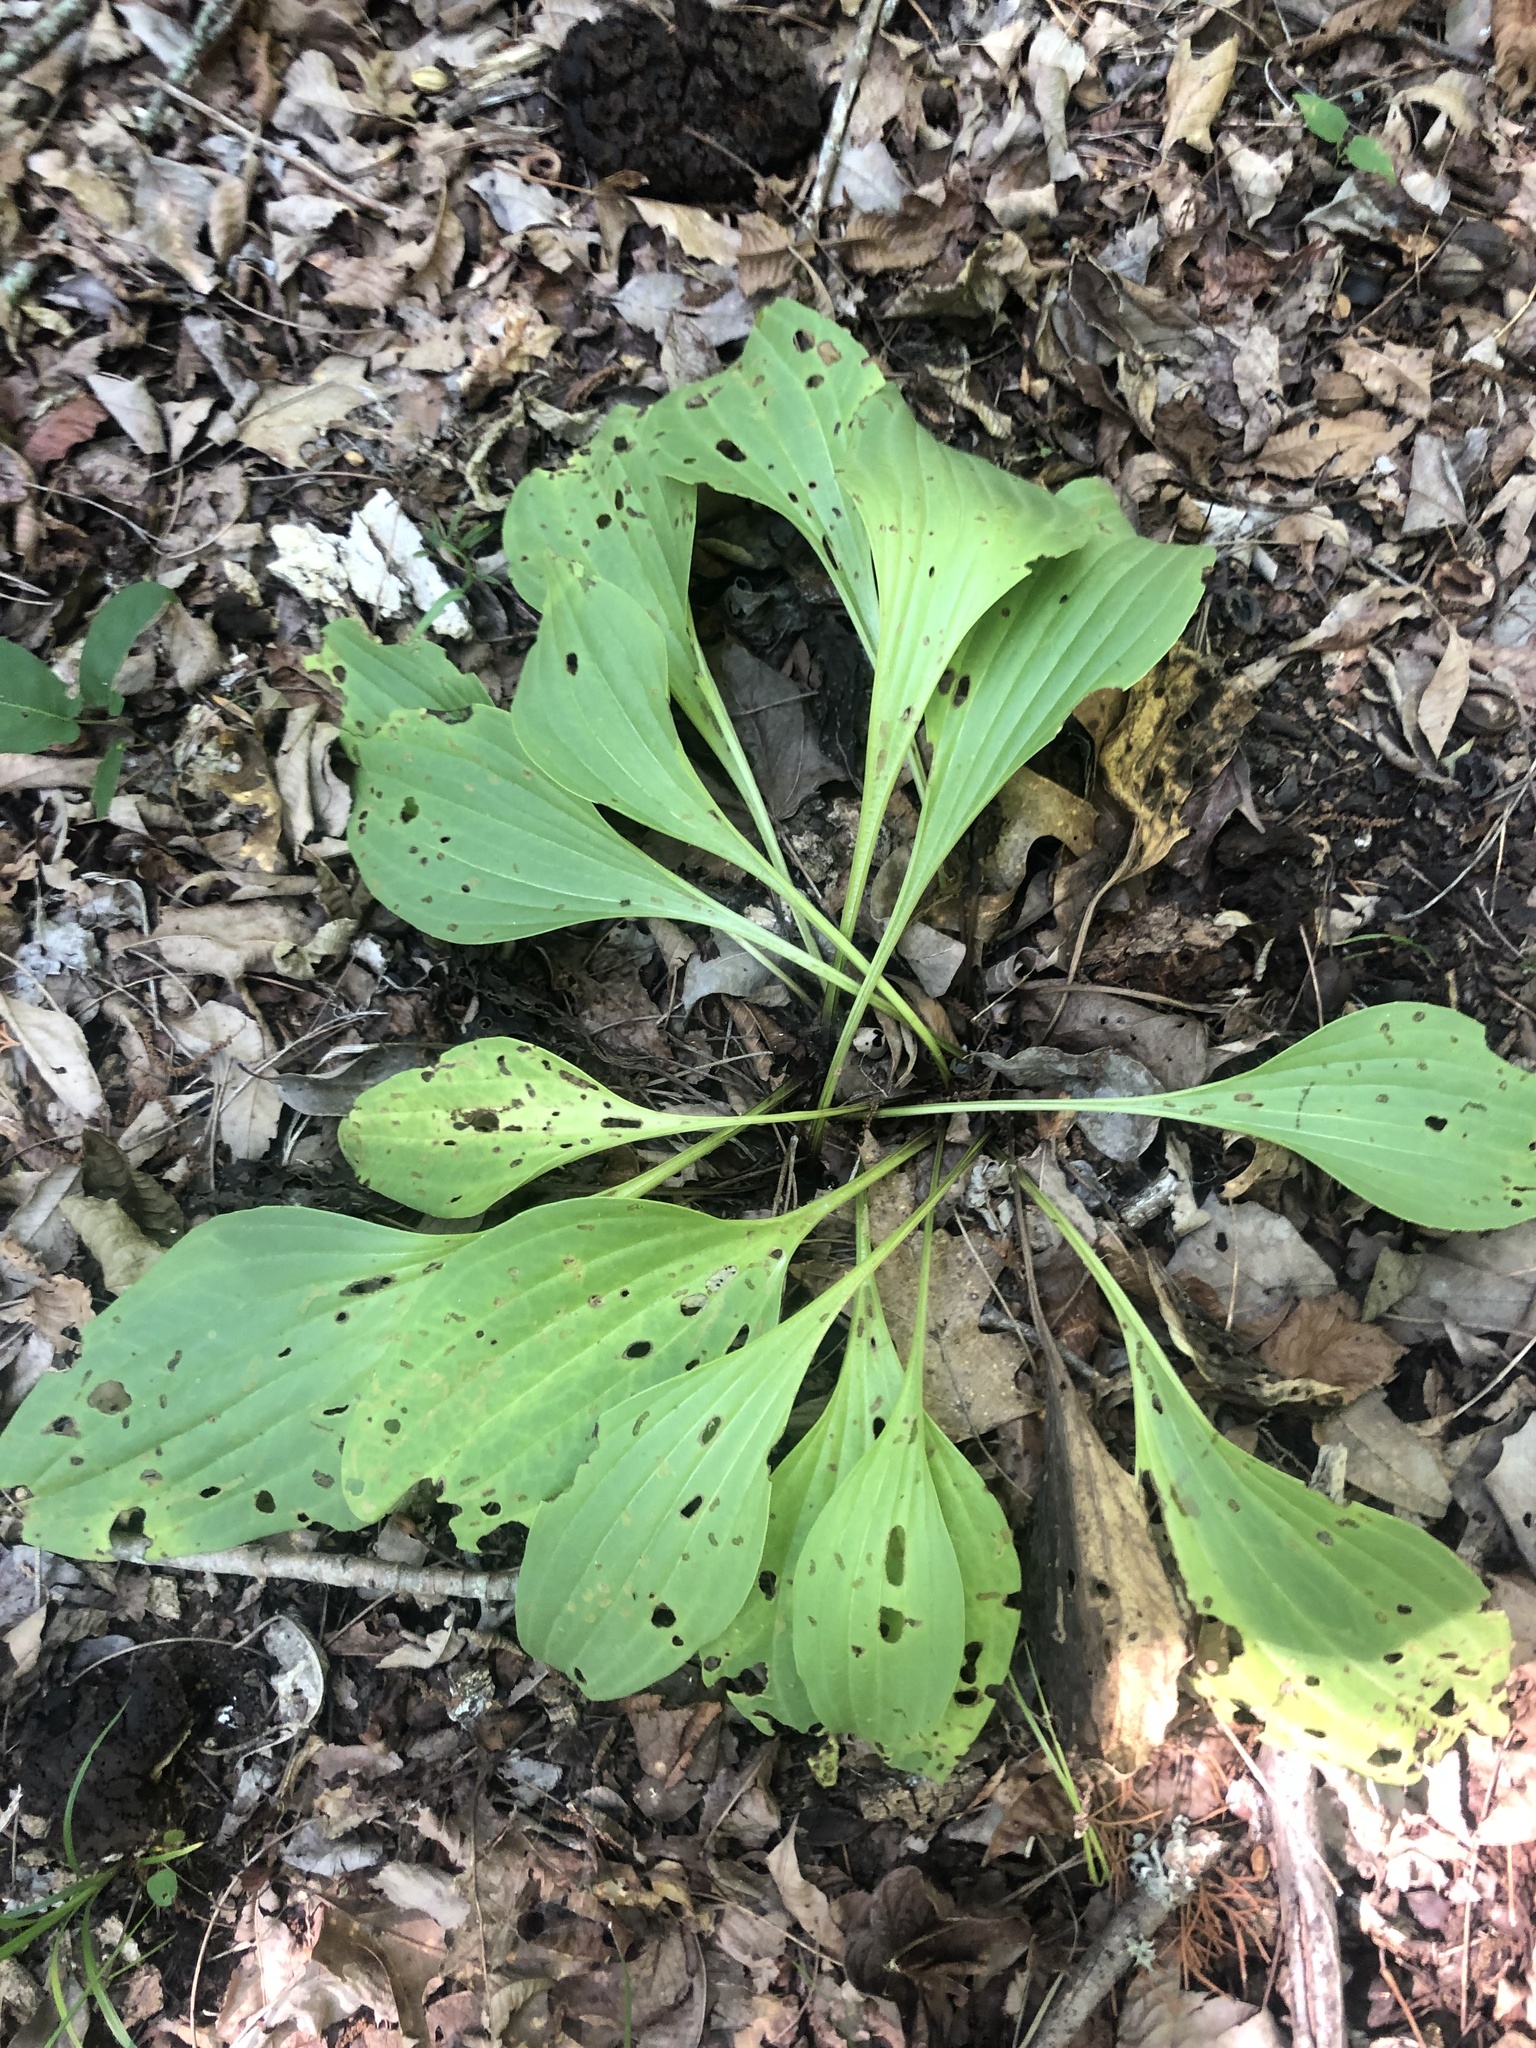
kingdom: Plantae
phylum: Tracheophyta
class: Magnoliopsida
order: Asterales
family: Asteraceae
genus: Arnoglossum
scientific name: Arnoglossum plantagineum
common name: Groove-stemmed indian-plantain
